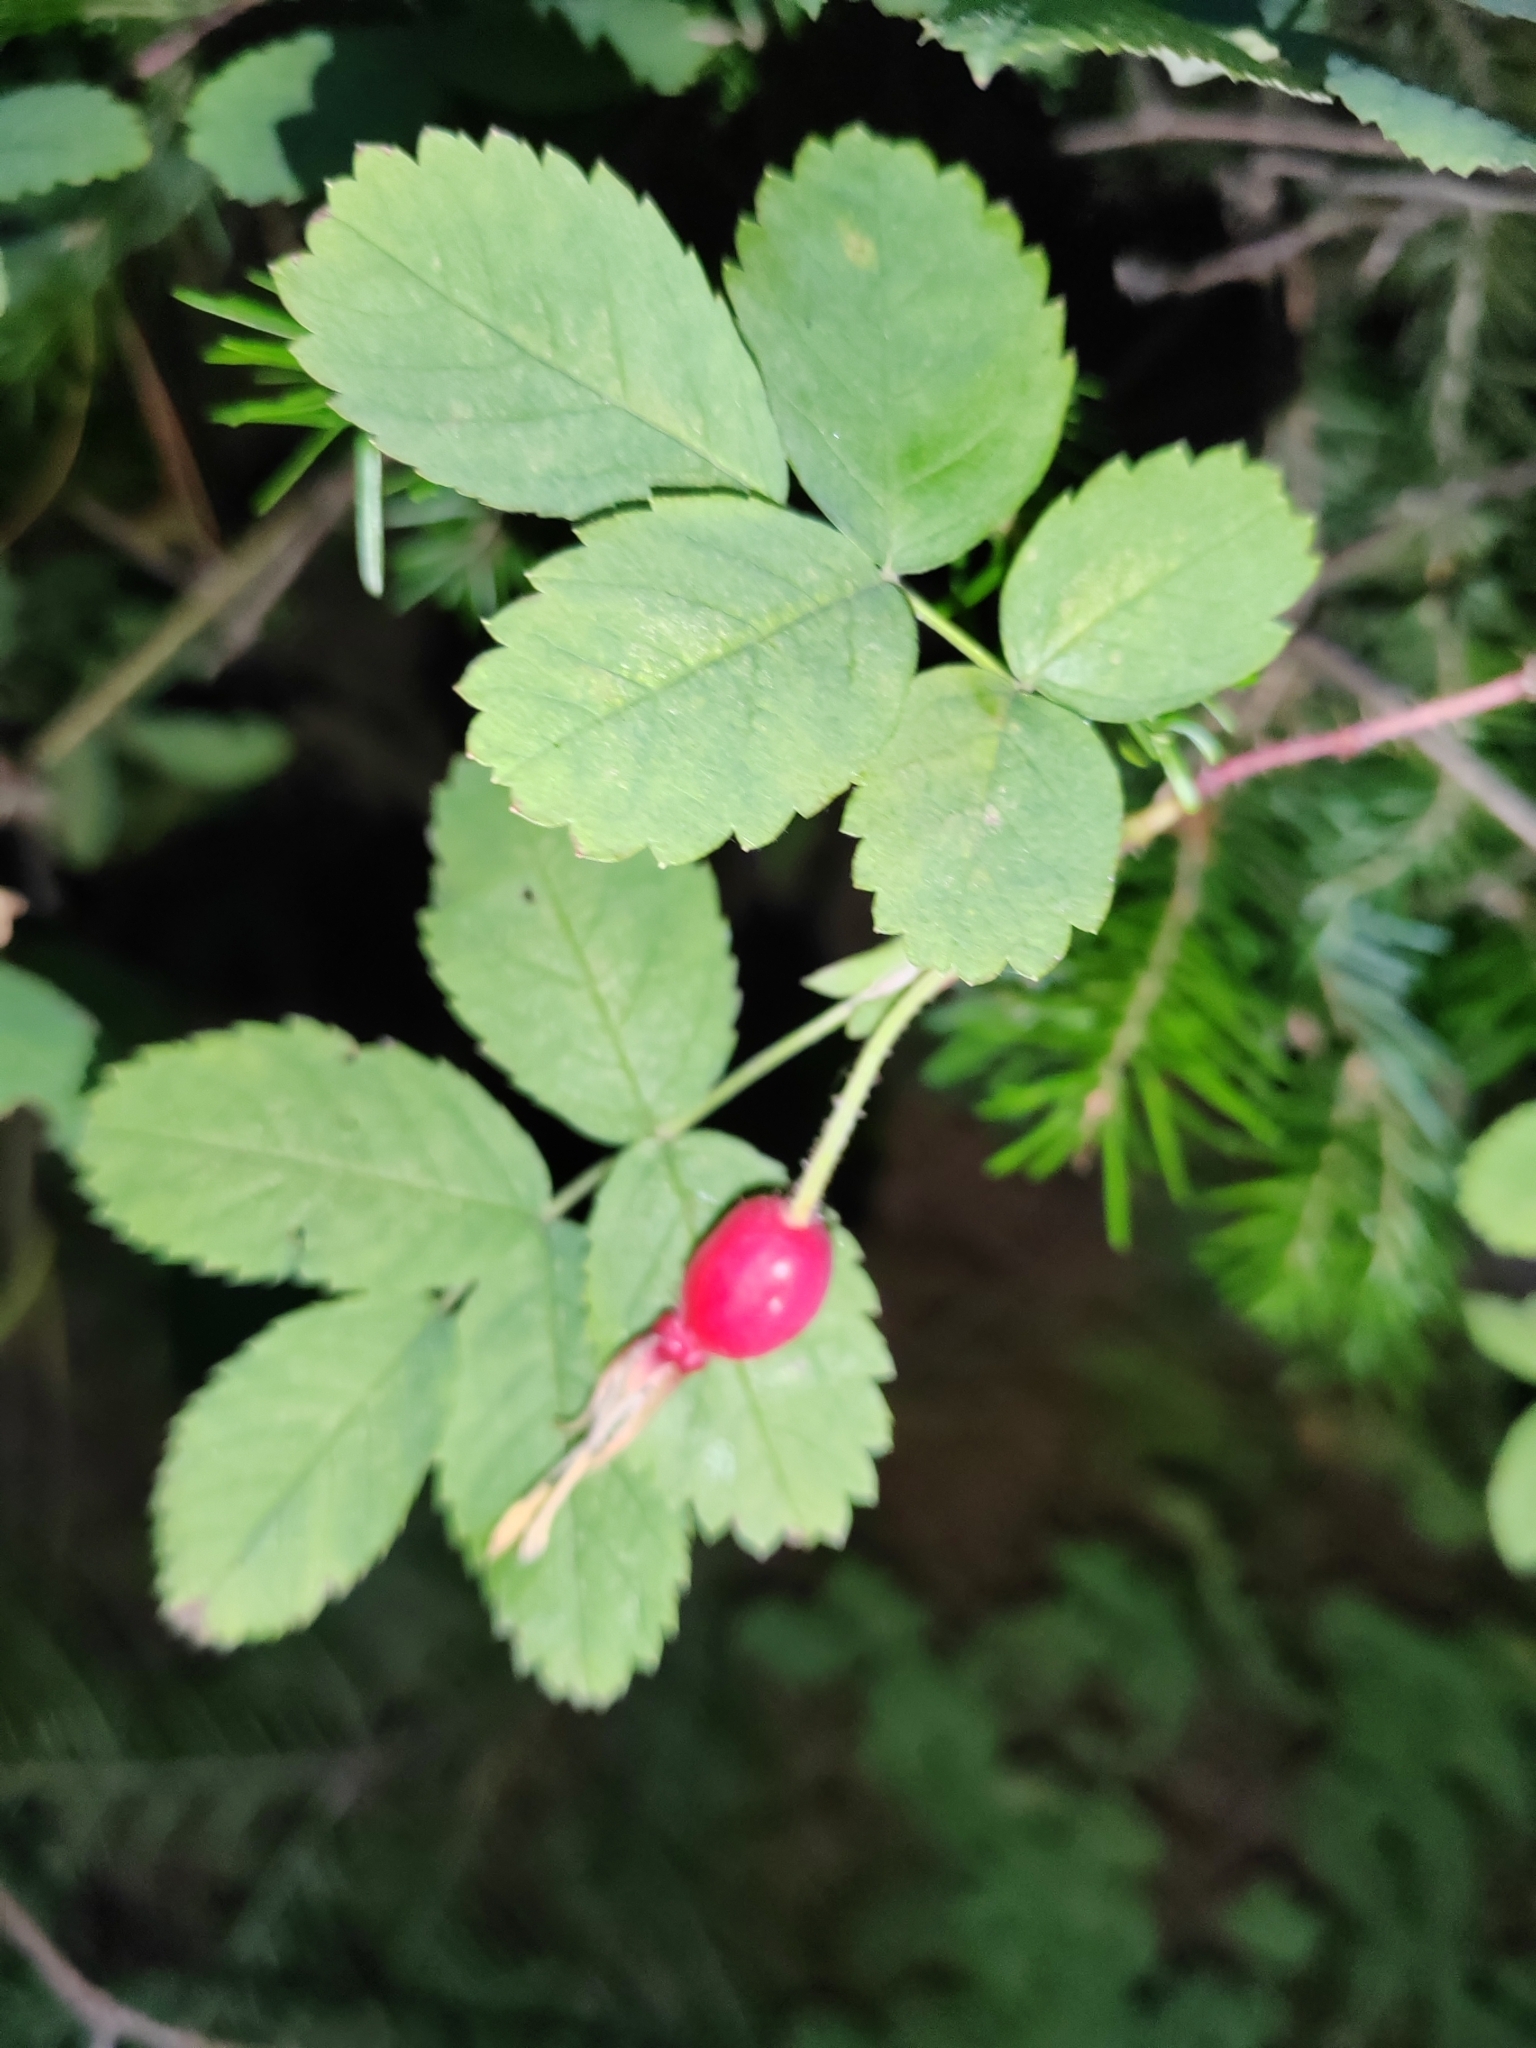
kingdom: Plantae
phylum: Tracheophyta
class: Magnoliopsida
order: Rosales
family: Rosaceae
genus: Rosa
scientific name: Rosa acicularis
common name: Prickly rose
